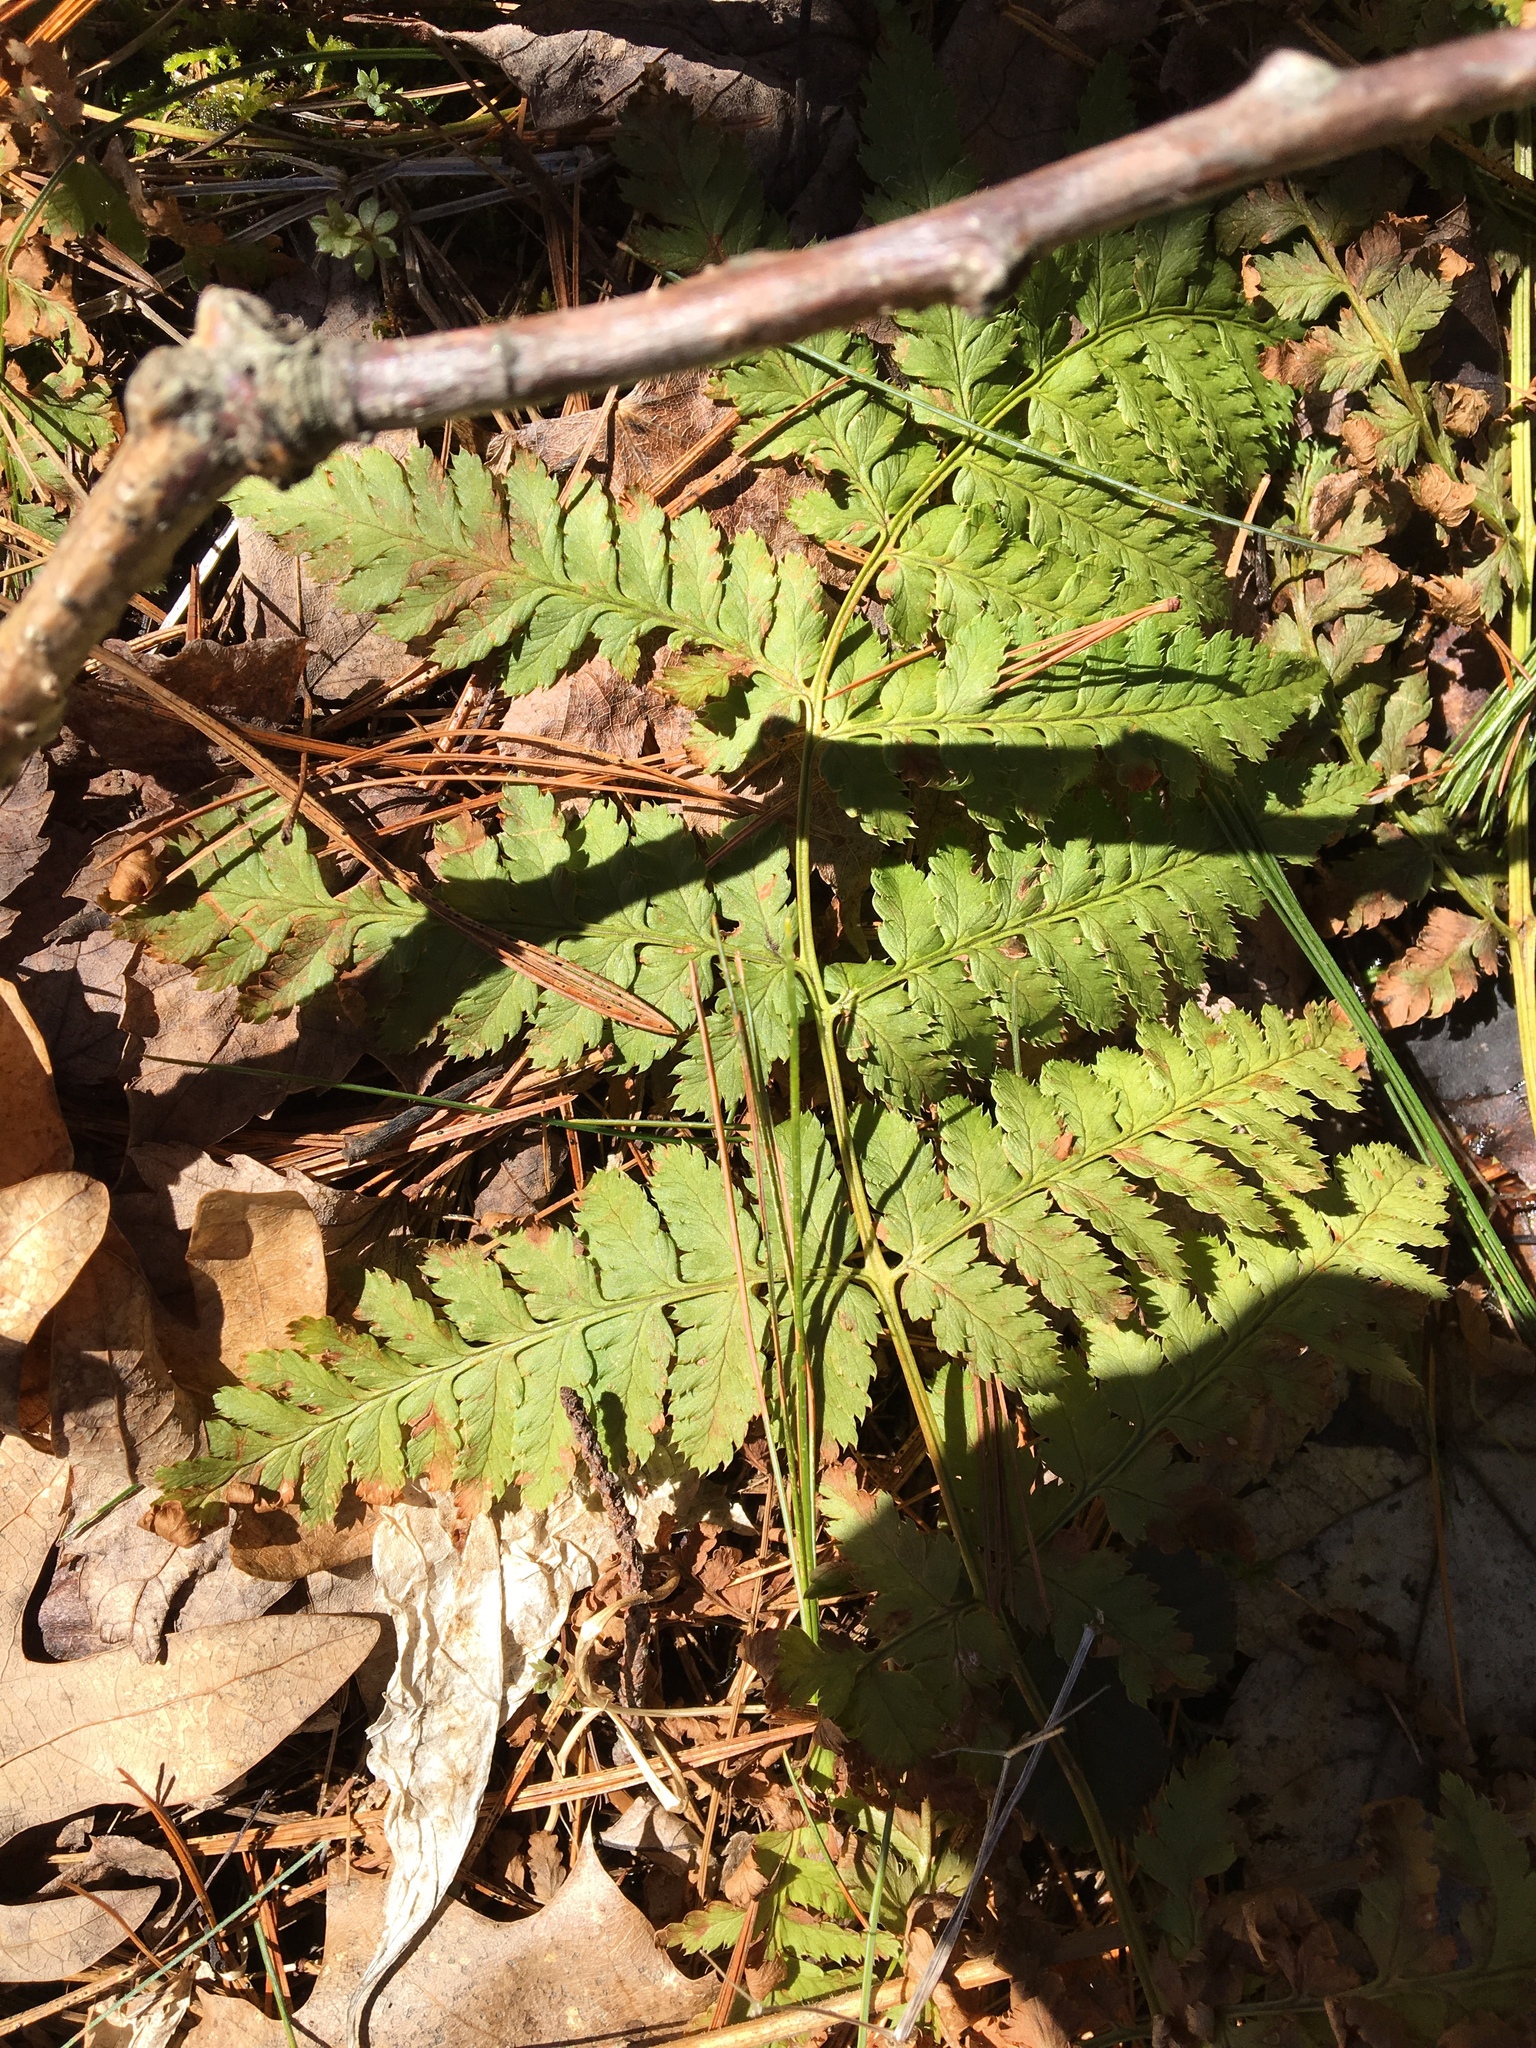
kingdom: Plantae
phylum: Tracheophyta
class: Polypodiopsida
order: Polypodiales
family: Dryopteridaceae
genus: Dryopteris
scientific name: Dryopteris intermedia
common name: Evergreen wood fern
